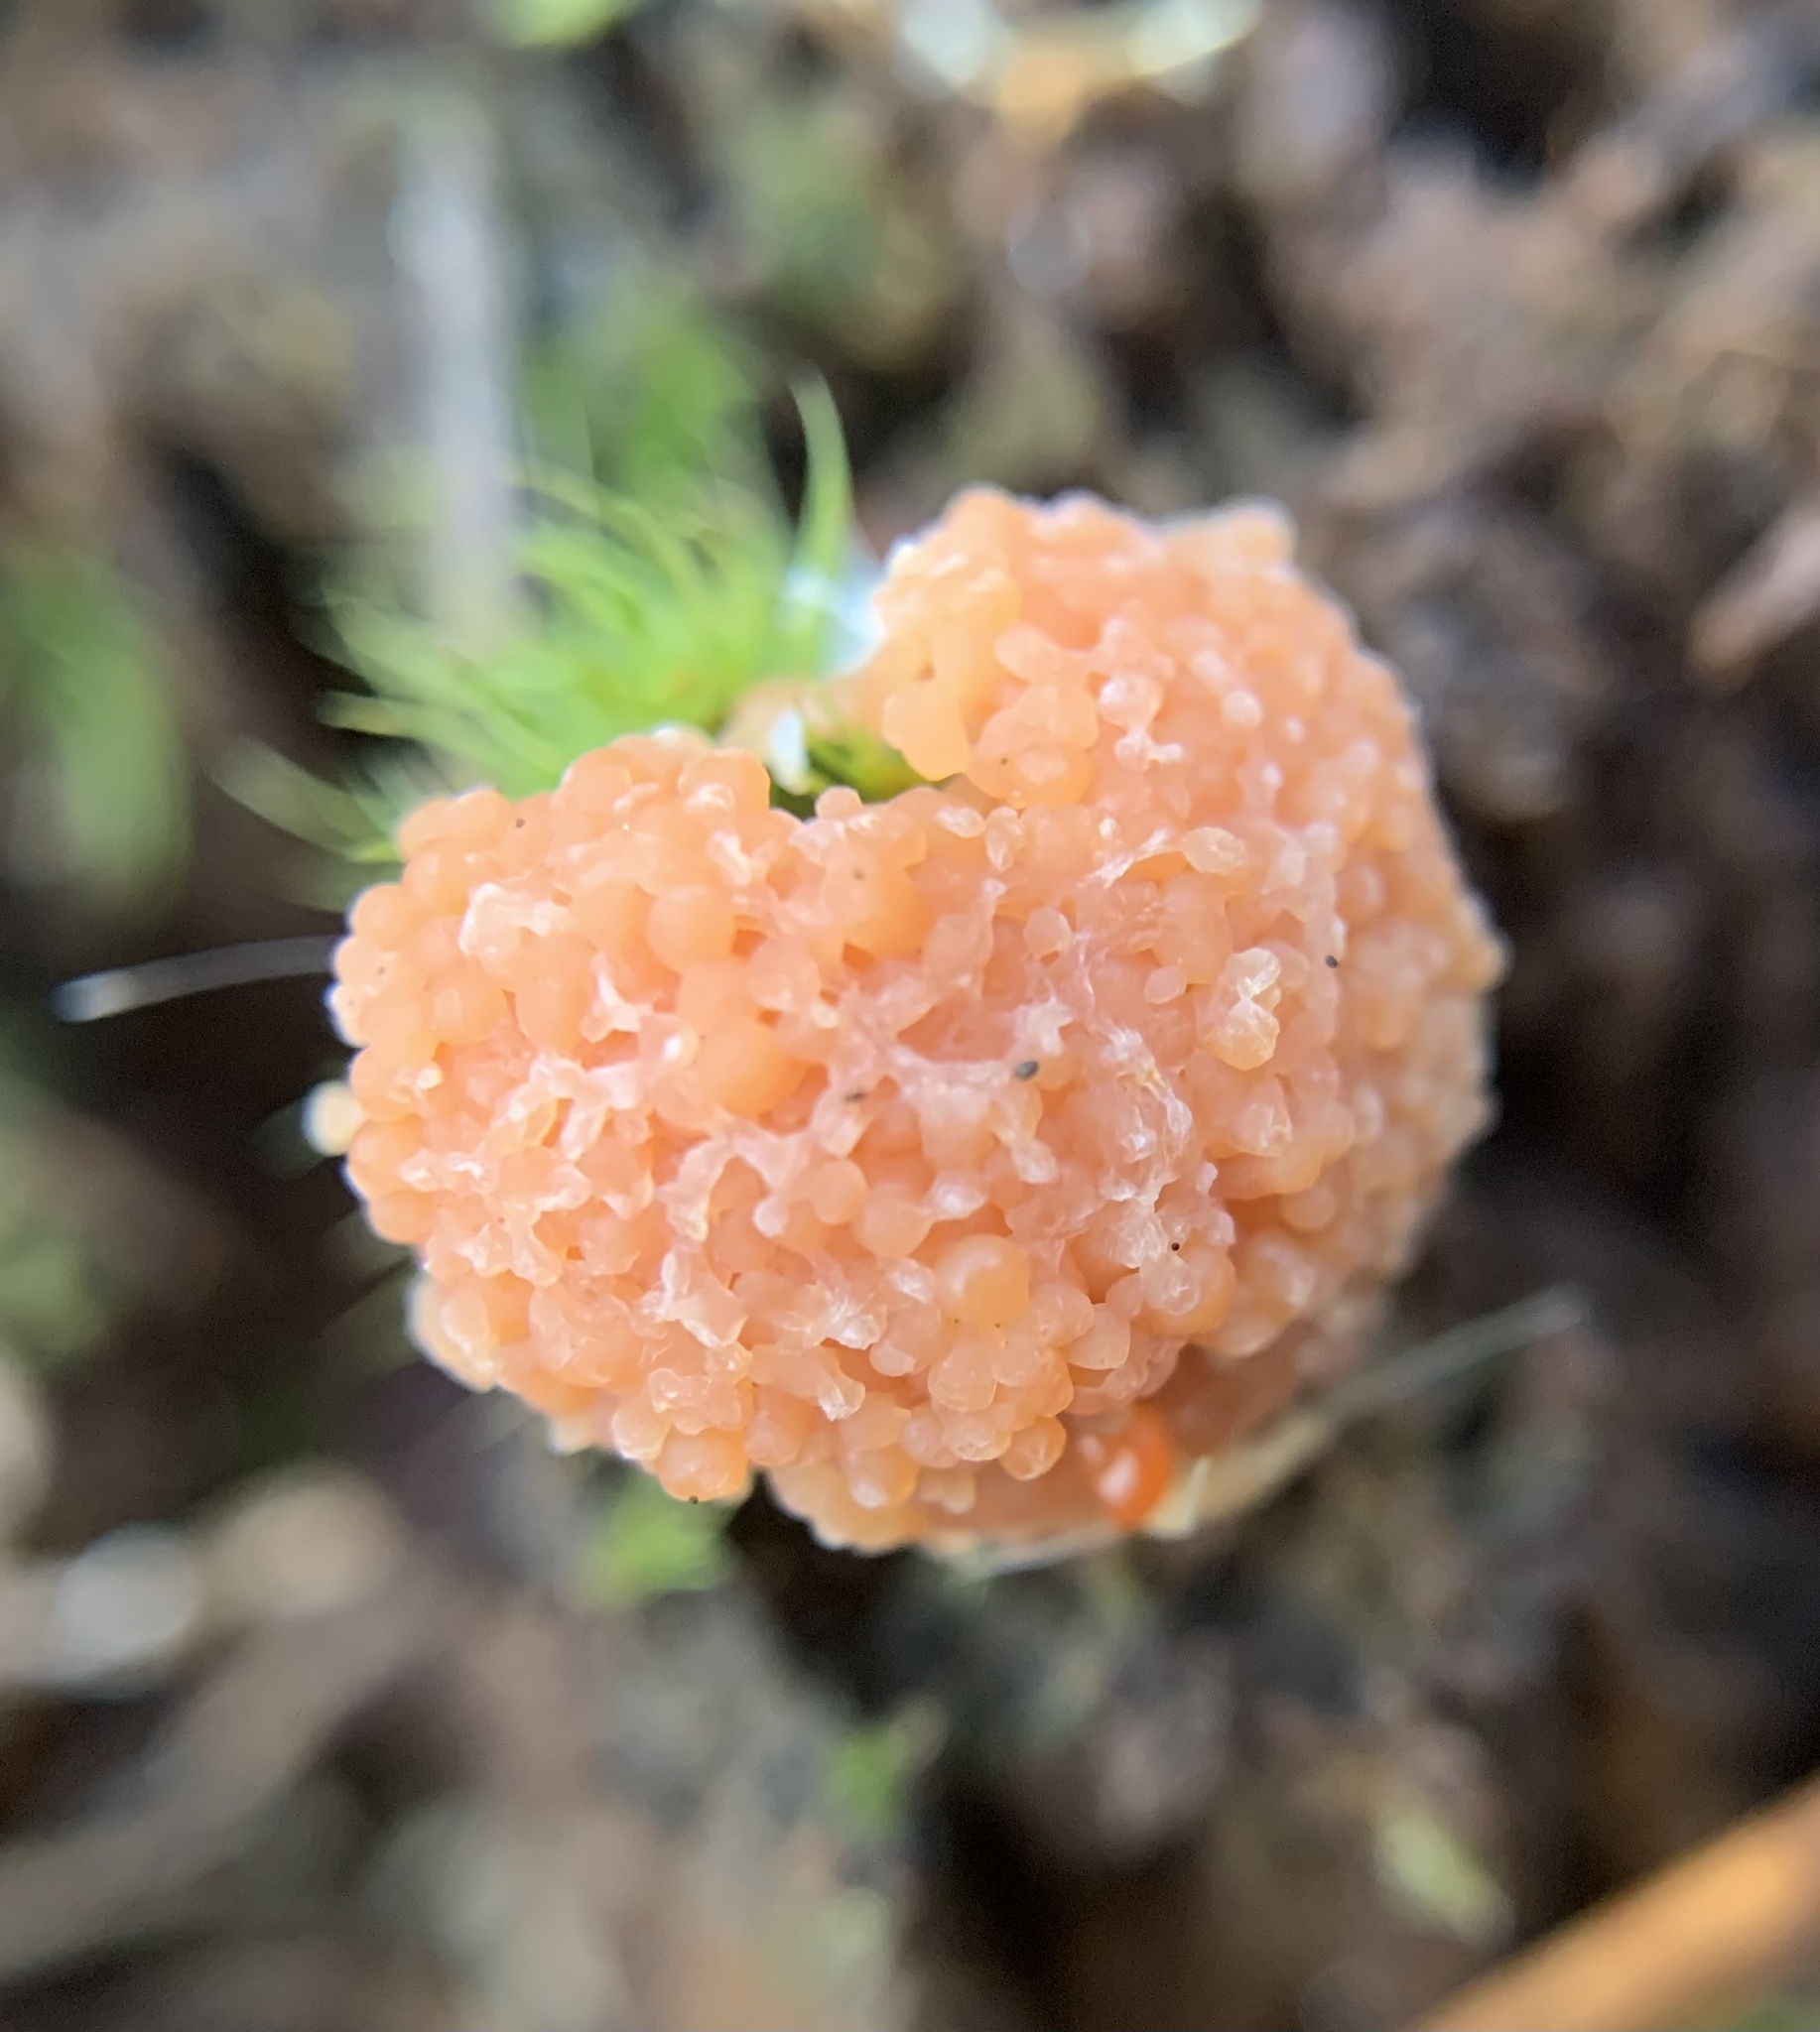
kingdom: Protozoa
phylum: Mycetozoa
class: Myxomycetes
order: Cribrariales
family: Tubiferaceae
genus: Tubifera
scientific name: Tubifera ferruginosa
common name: Red raspberry slime mold
